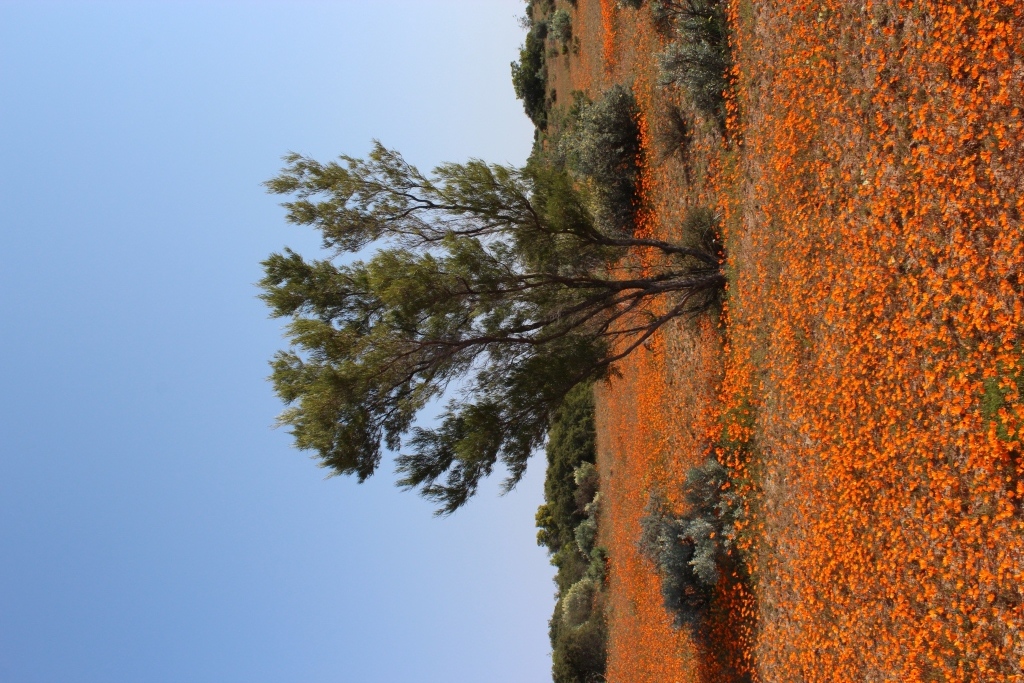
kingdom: Plantae
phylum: Tracheophyta
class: Magnoliopsida
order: Sapindales
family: Sapindaceae
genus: Dodonaea
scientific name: Dodonaea viscosa
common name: Hopbush
